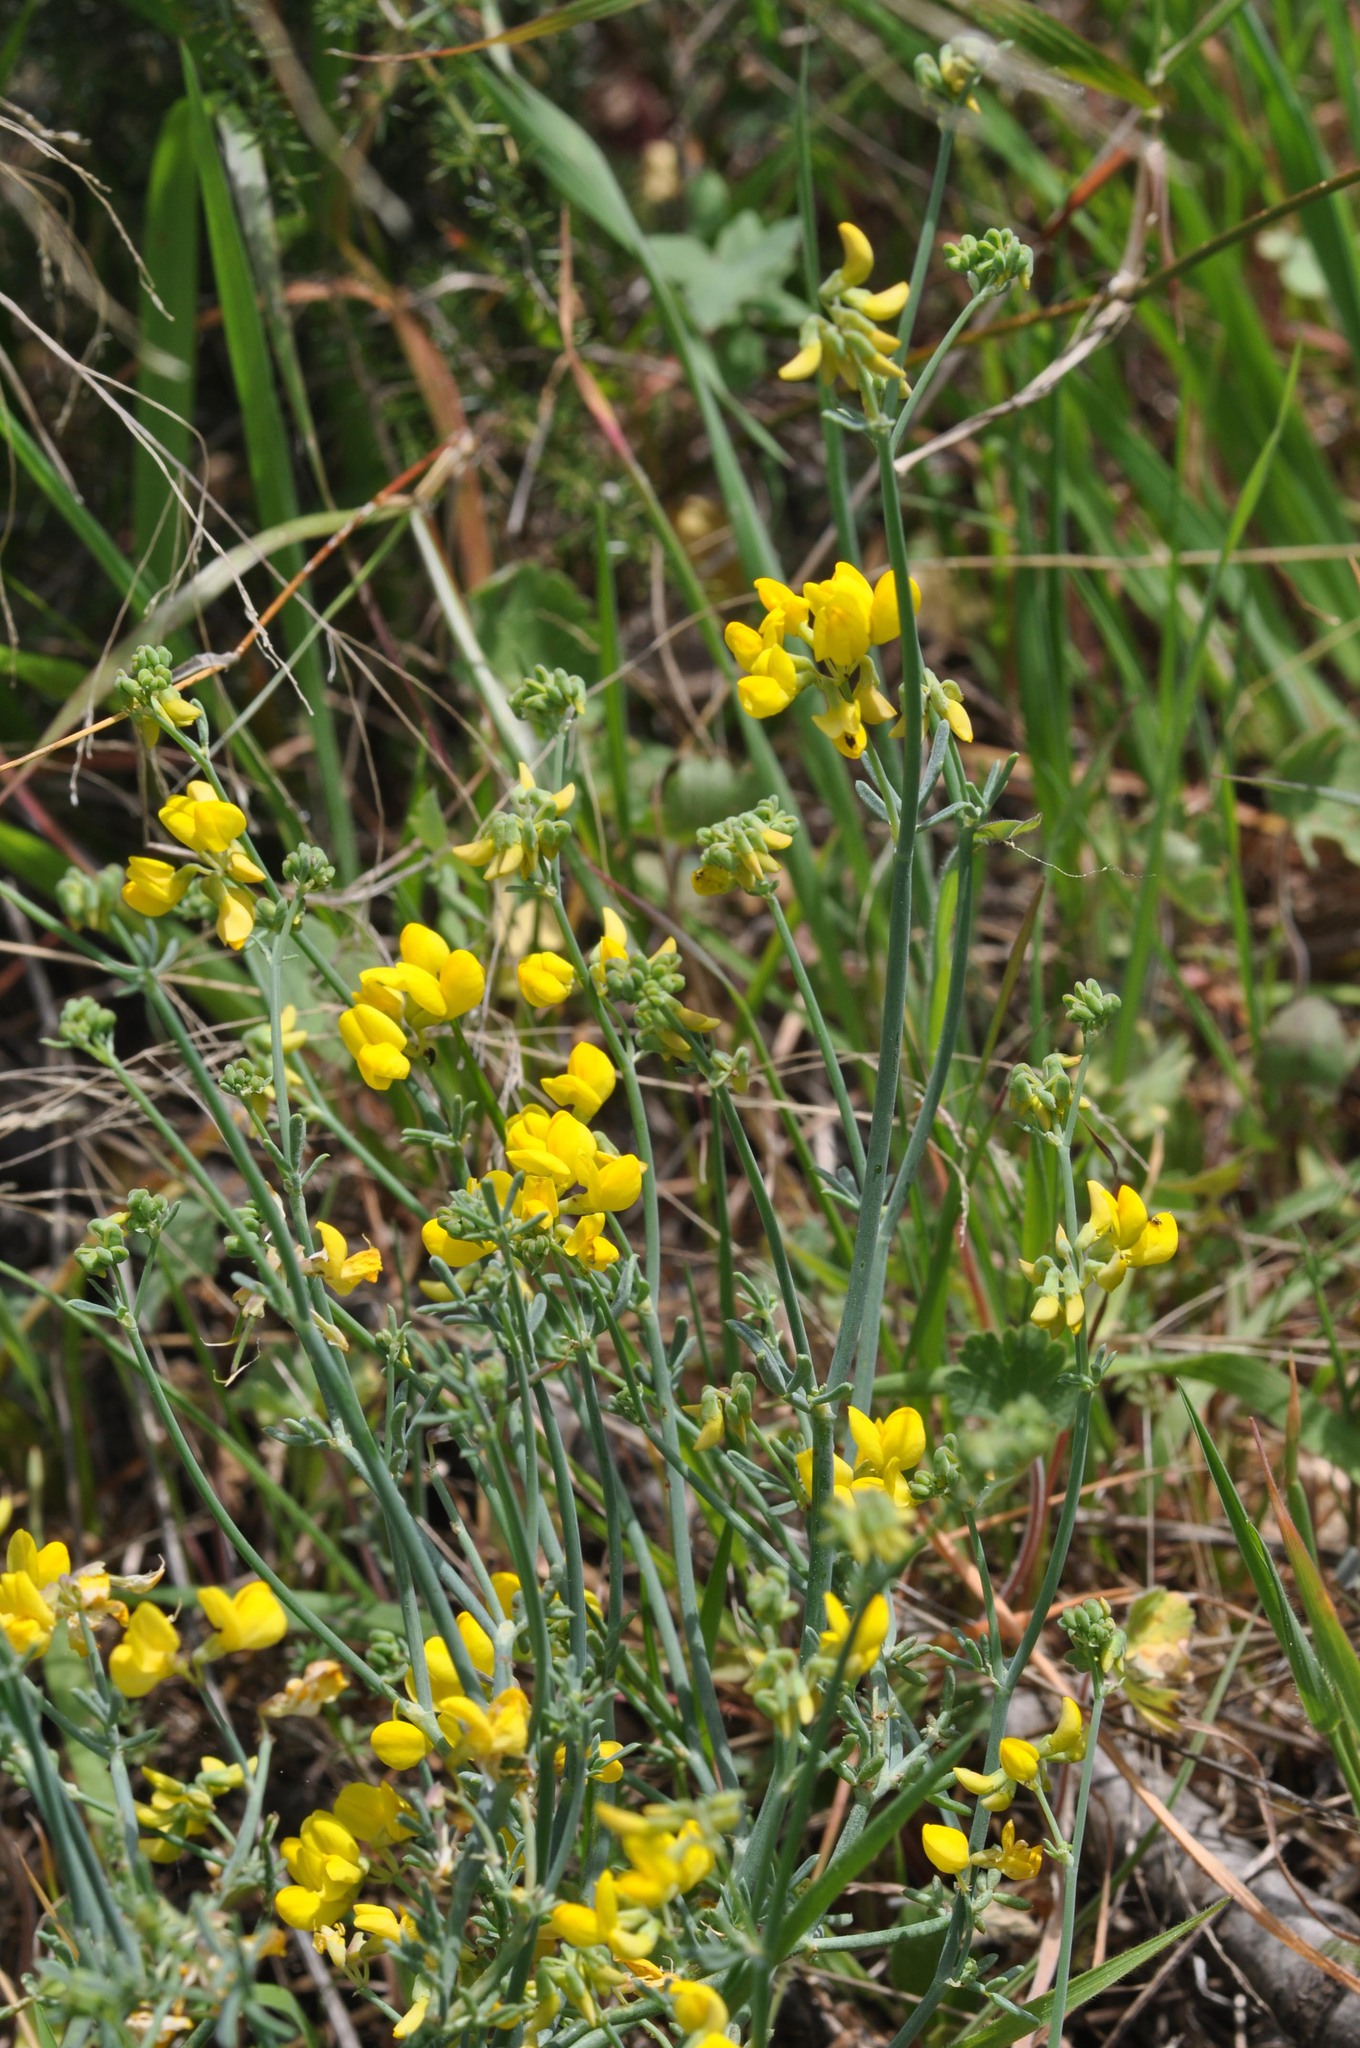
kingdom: Plantae
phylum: Tracheophyta
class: Magnoliopsida
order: Fabales
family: Fabaceae
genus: Coronilla
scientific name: Coronilla juncea
